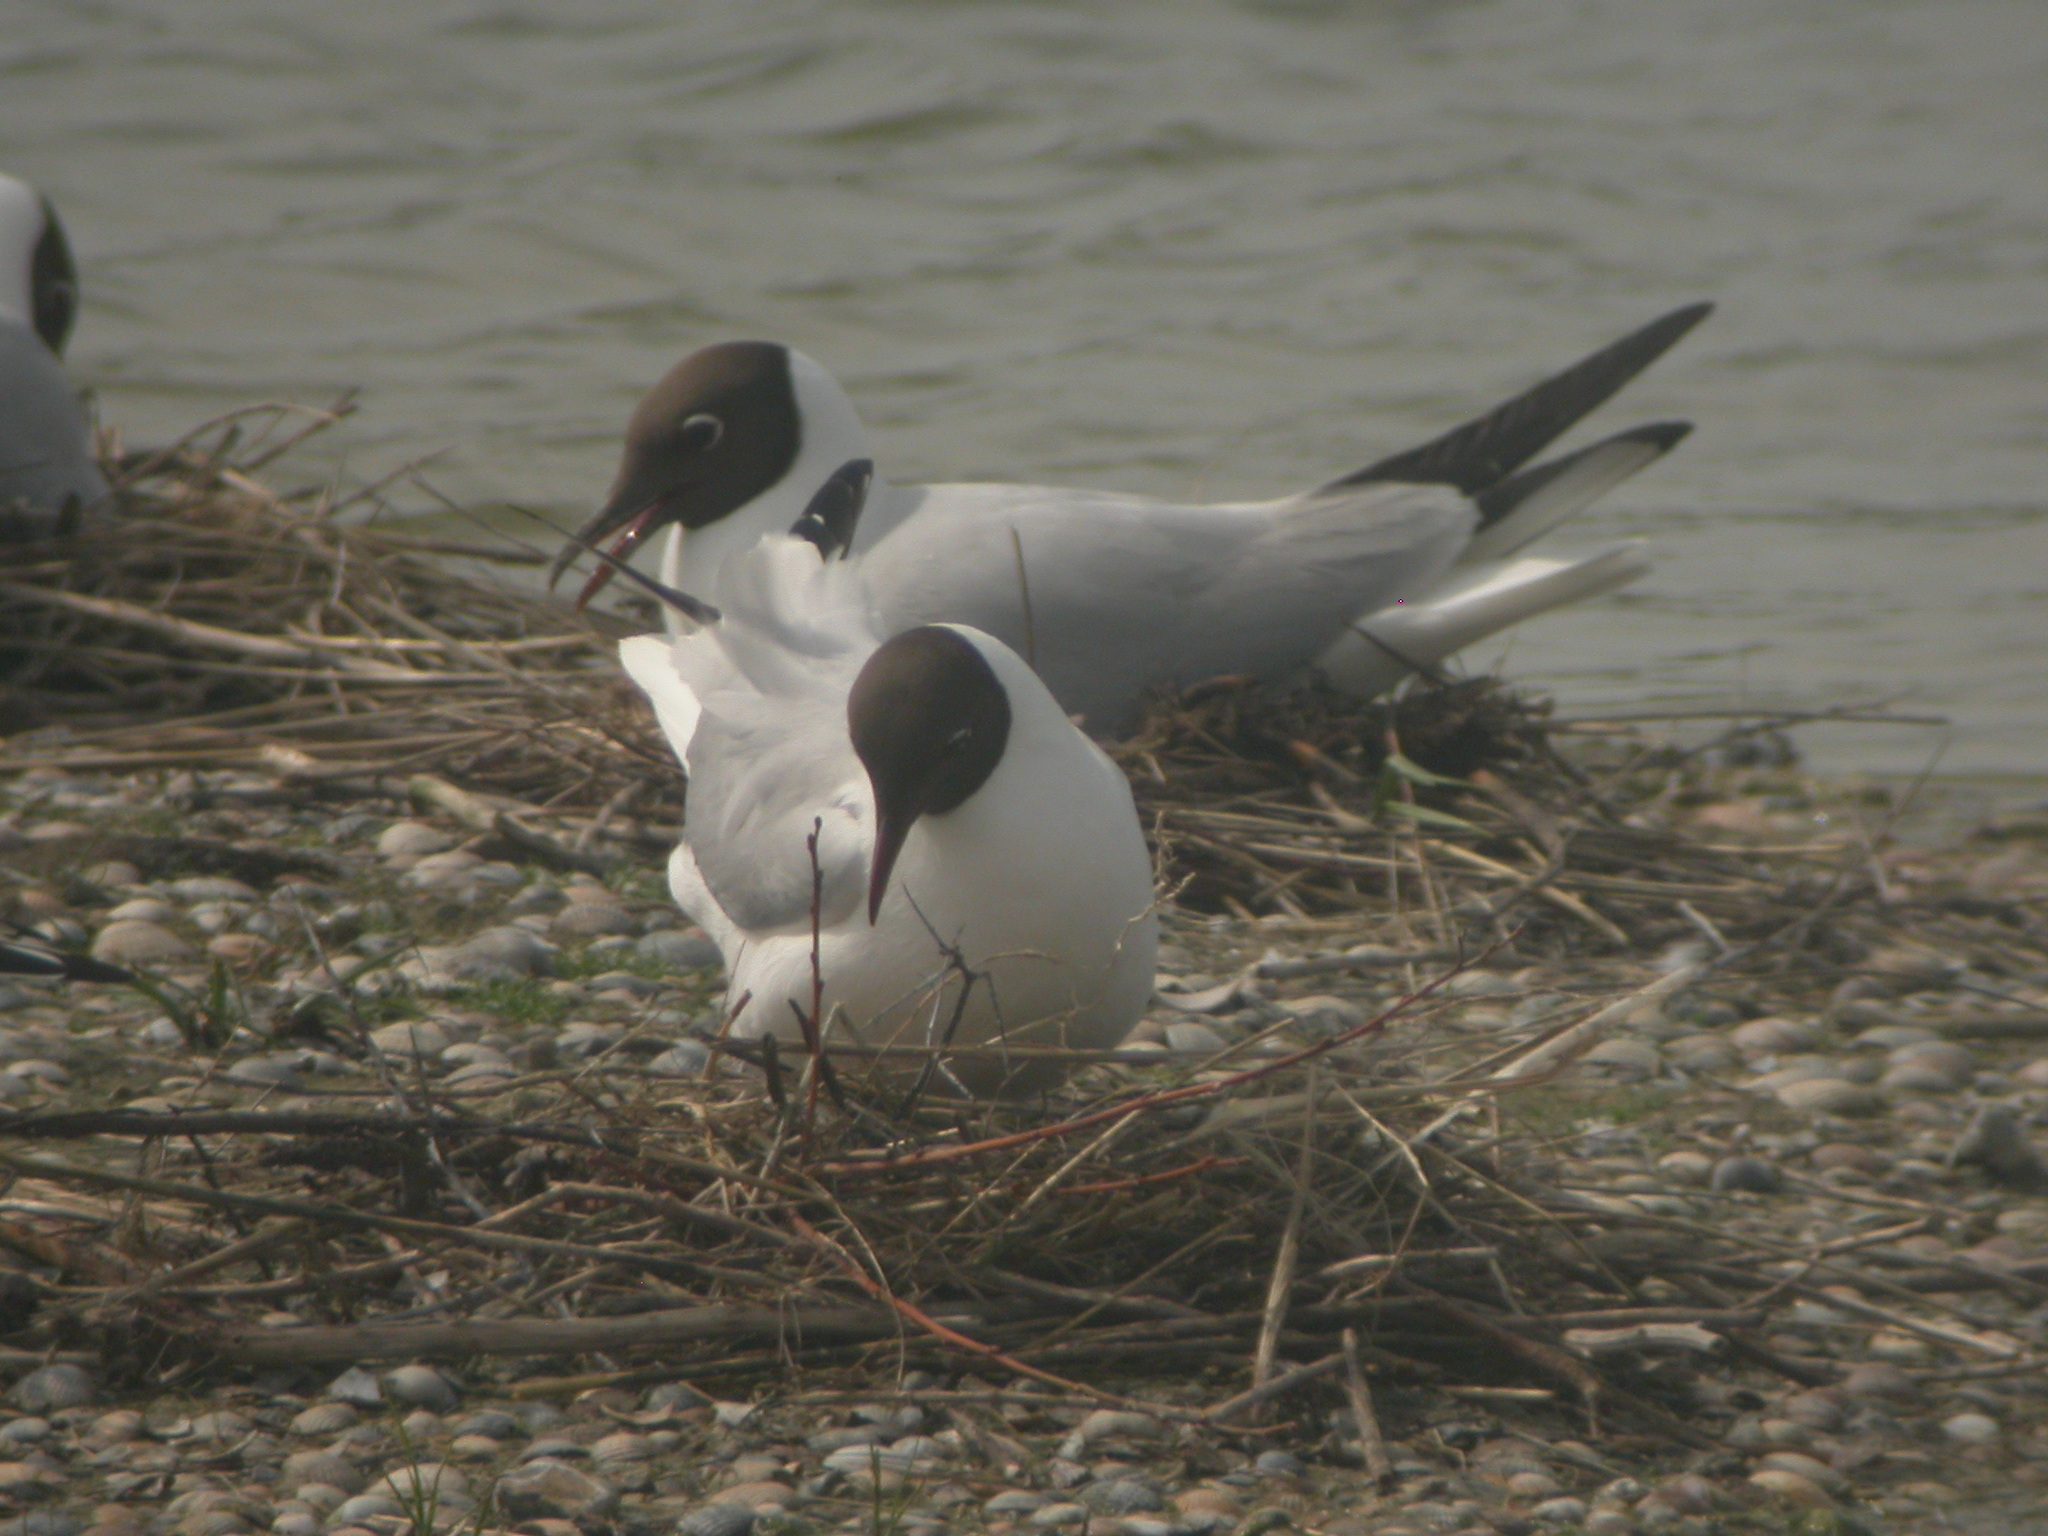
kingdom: Animalia
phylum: Chordata
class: Aves
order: Charadriiformes
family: Laridae
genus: Chroicocephalus
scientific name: Chroicocephalus ridibundus
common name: Black-headed gull
